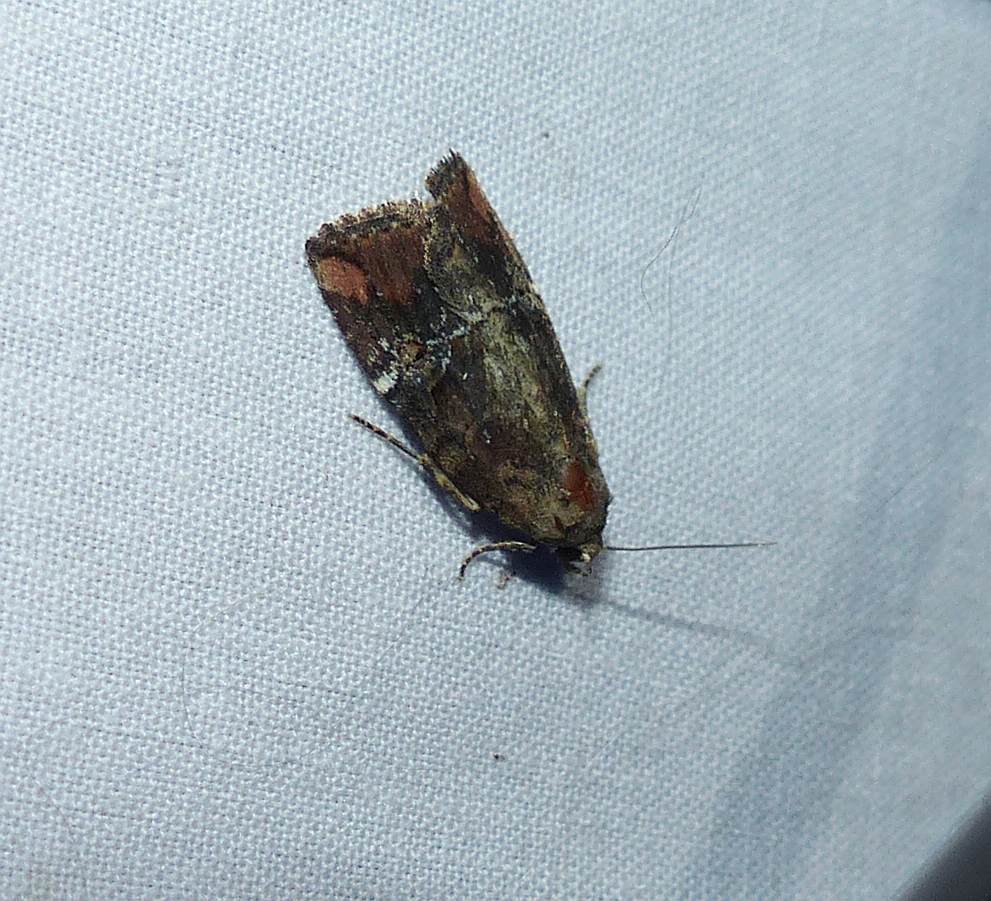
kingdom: Animalia
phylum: Arthropoda
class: Insecta
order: Lepidoptera
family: Noctuidae
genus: Elaphria
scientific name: Elaphria versicolor
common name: Fir harlequin
